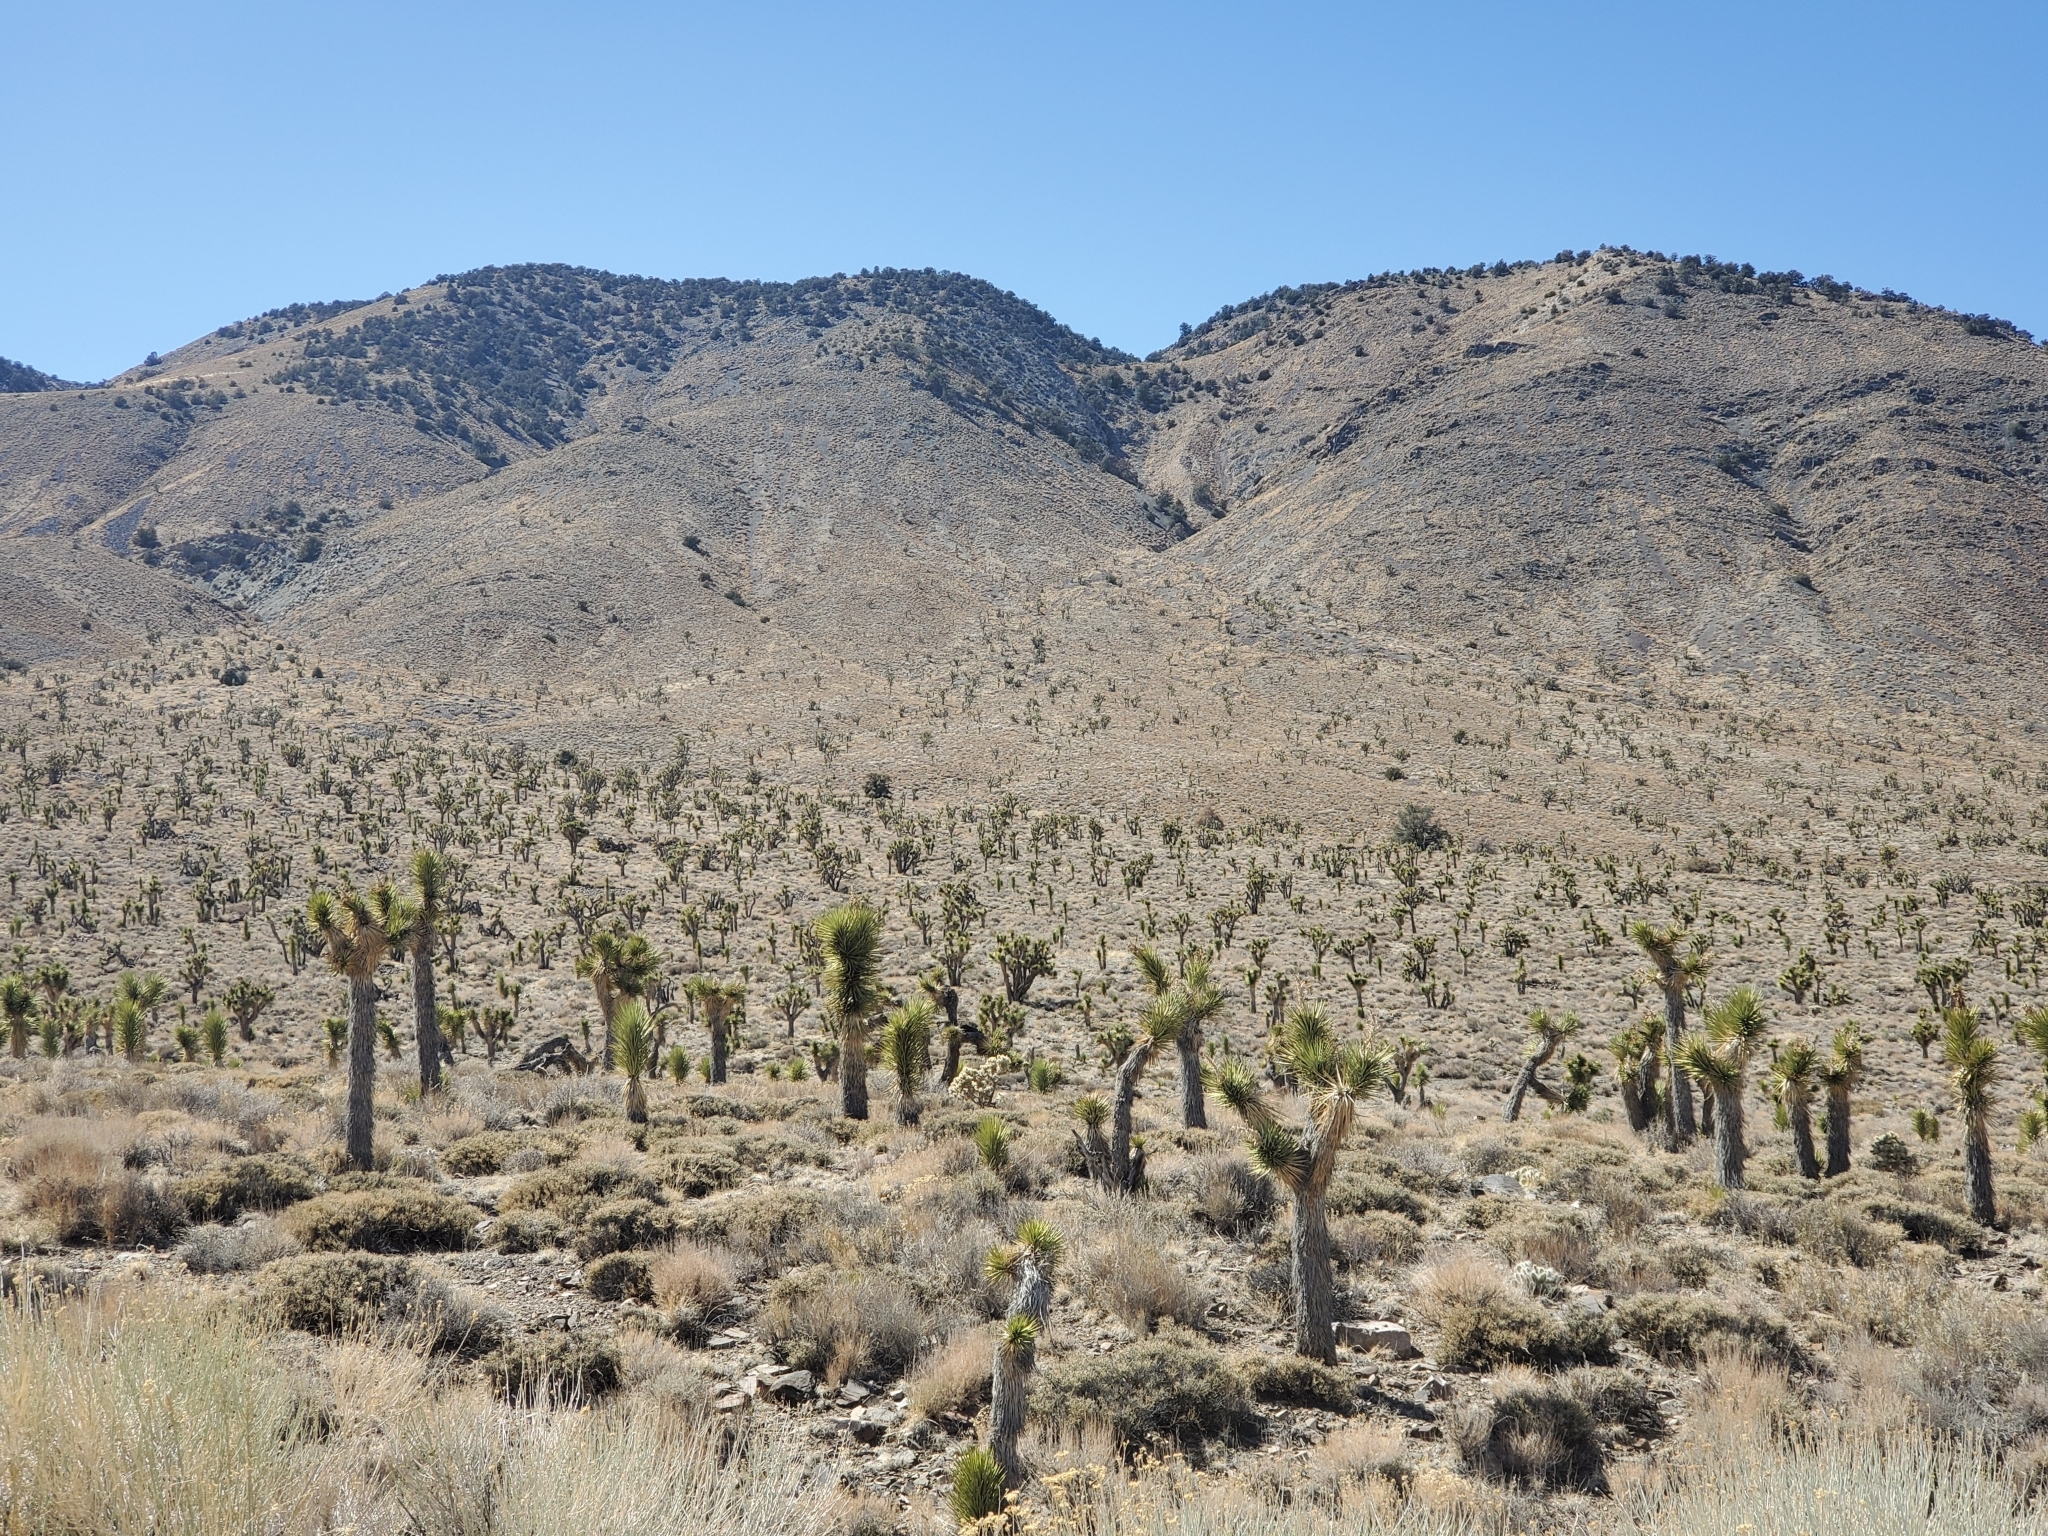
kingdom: Plantae
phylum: Tracheophyta
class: Liliopsida
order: Asparagales
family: Asparagaceae
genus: Yucca
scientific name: Yucca brevifolia
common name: Joshua tree
